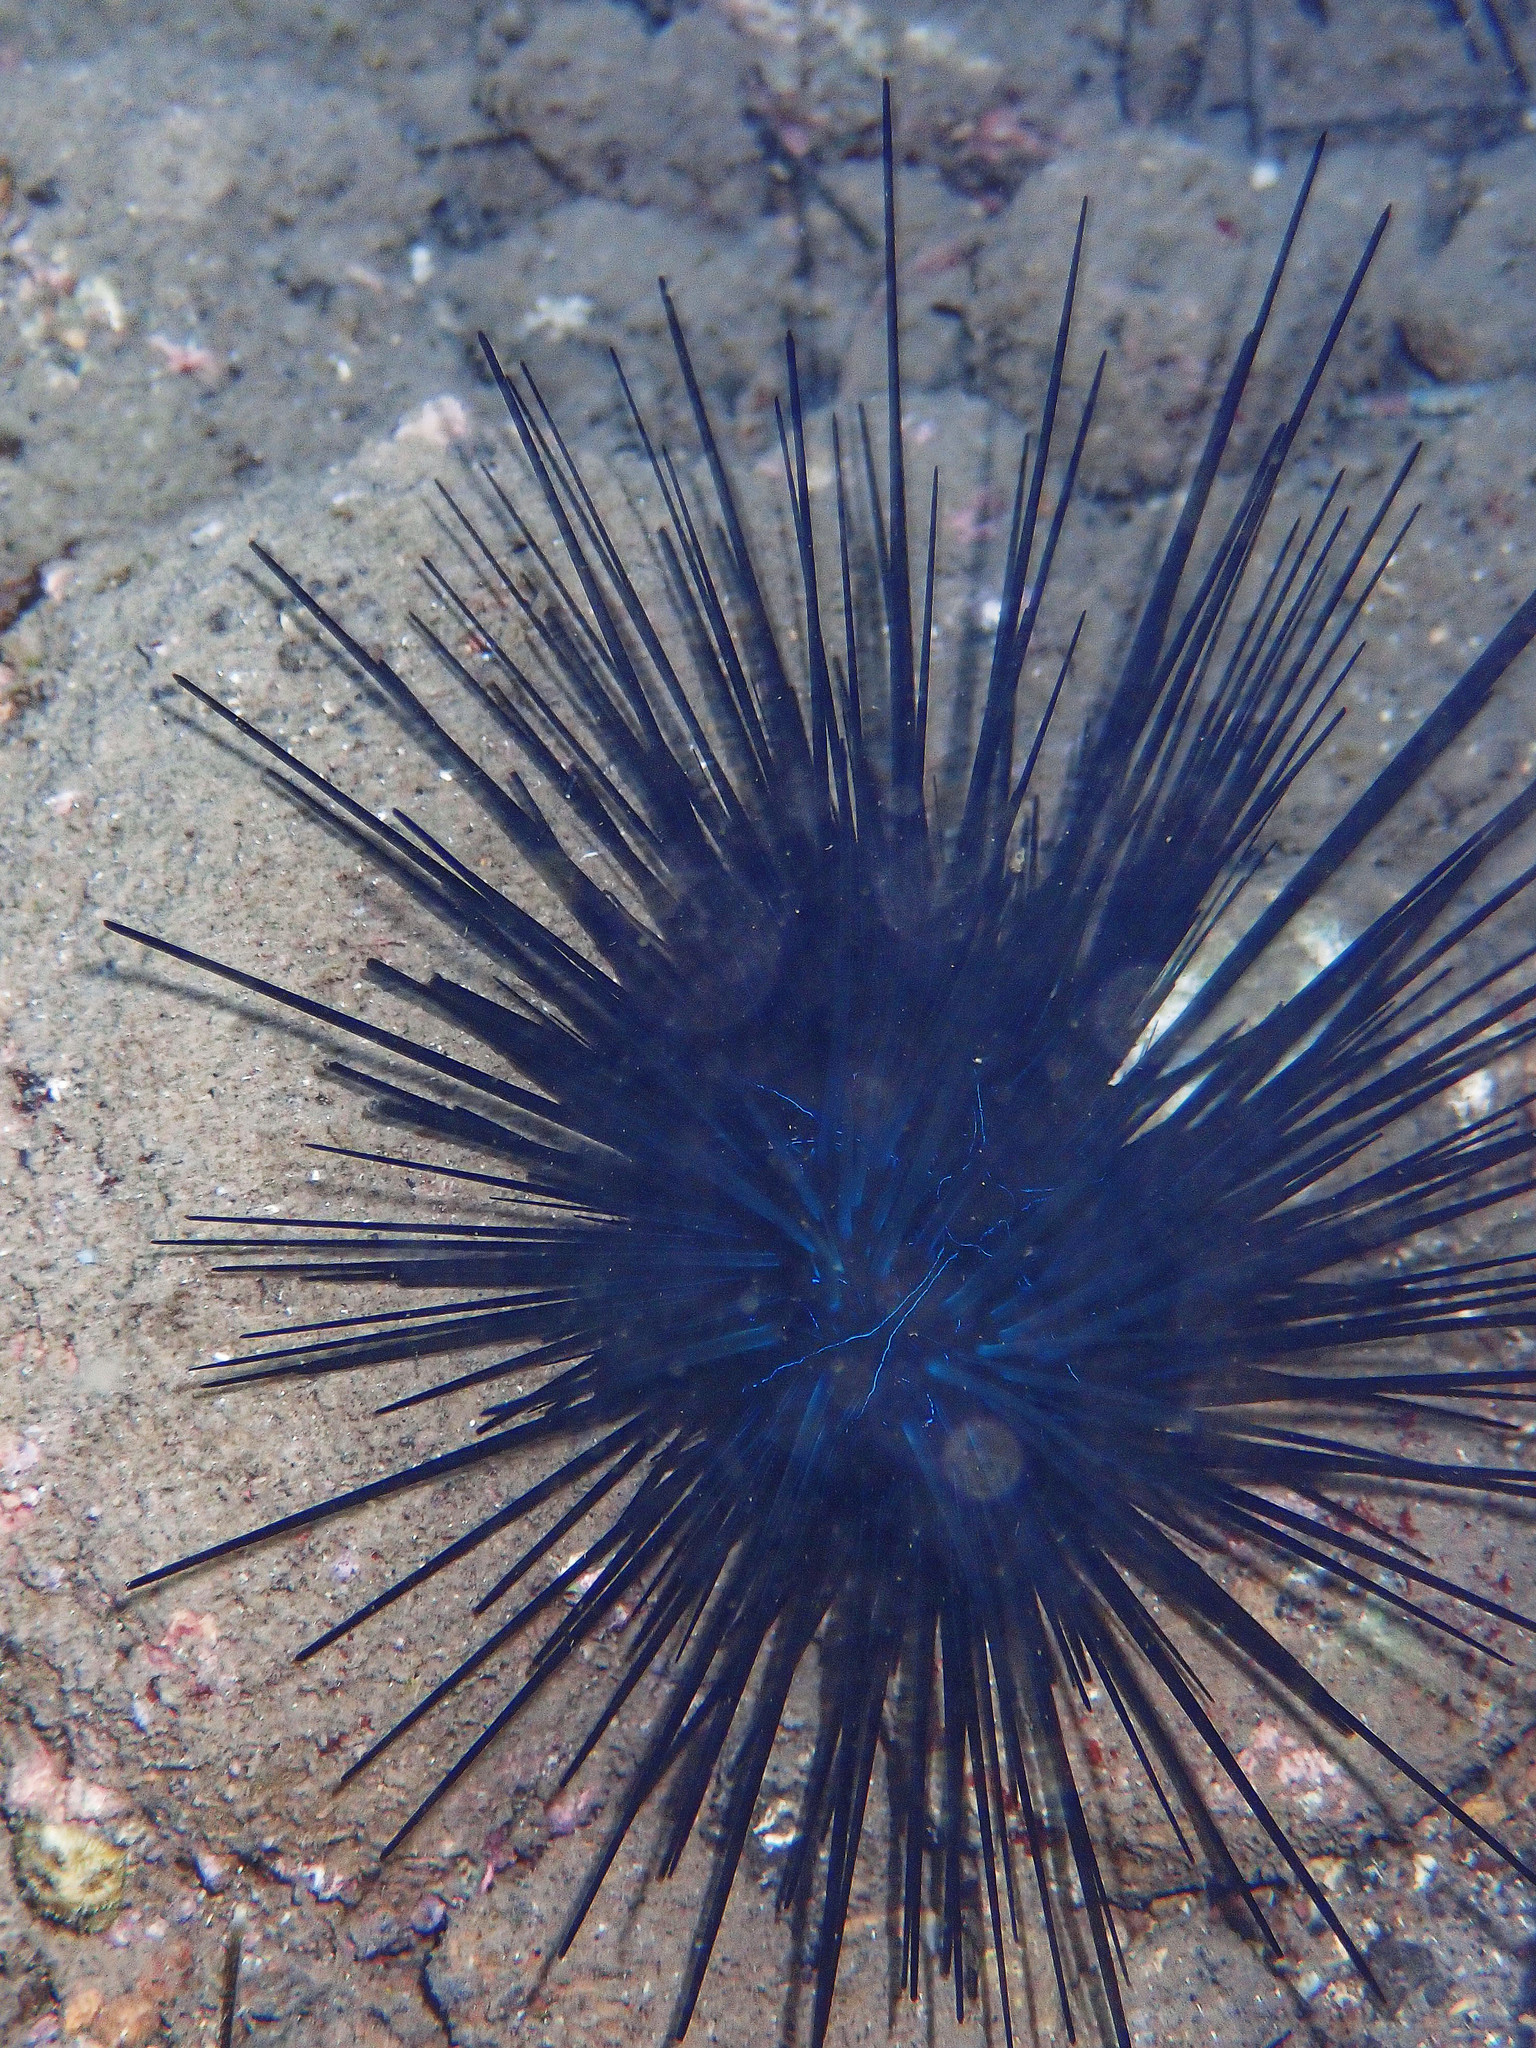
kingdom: Animalia
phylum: Echinodermata
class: Echinoidea
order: Diadematoida
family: Diadematidae
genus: Diadema
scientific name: Diadema antillarum
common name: Spiny urchin
